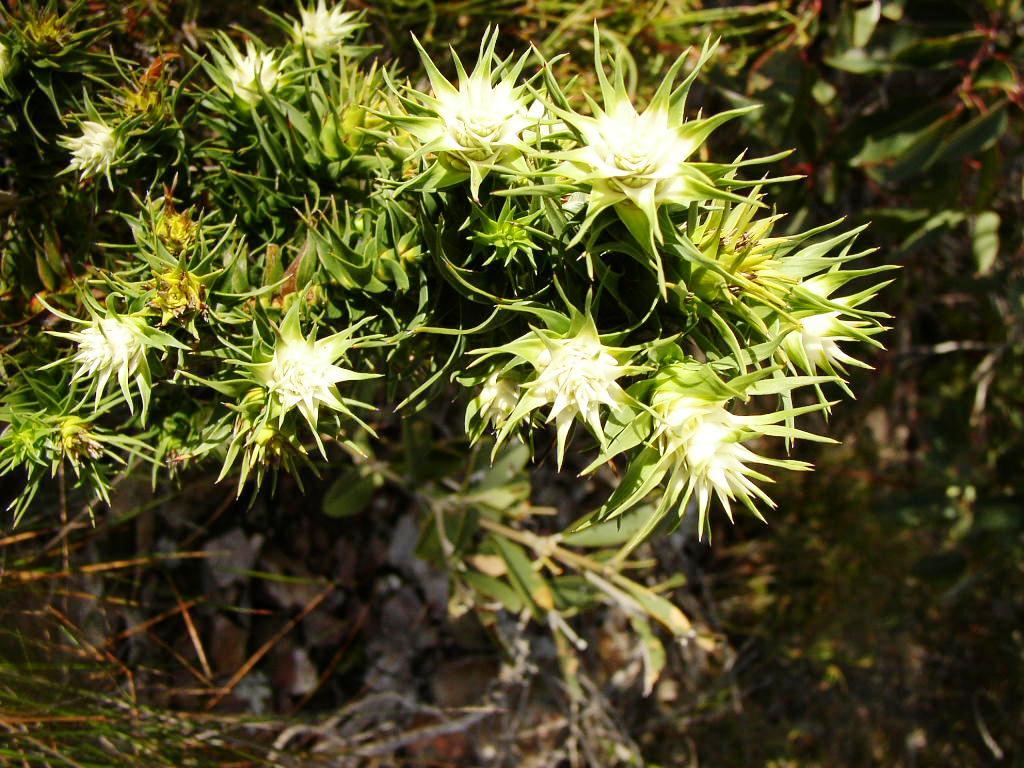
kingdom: Plantae
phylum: Tracheophyta
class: Magnoliopsida
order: Ericales
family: Ericaceae
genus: Andersonia
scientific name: Andersonia echinocephala
